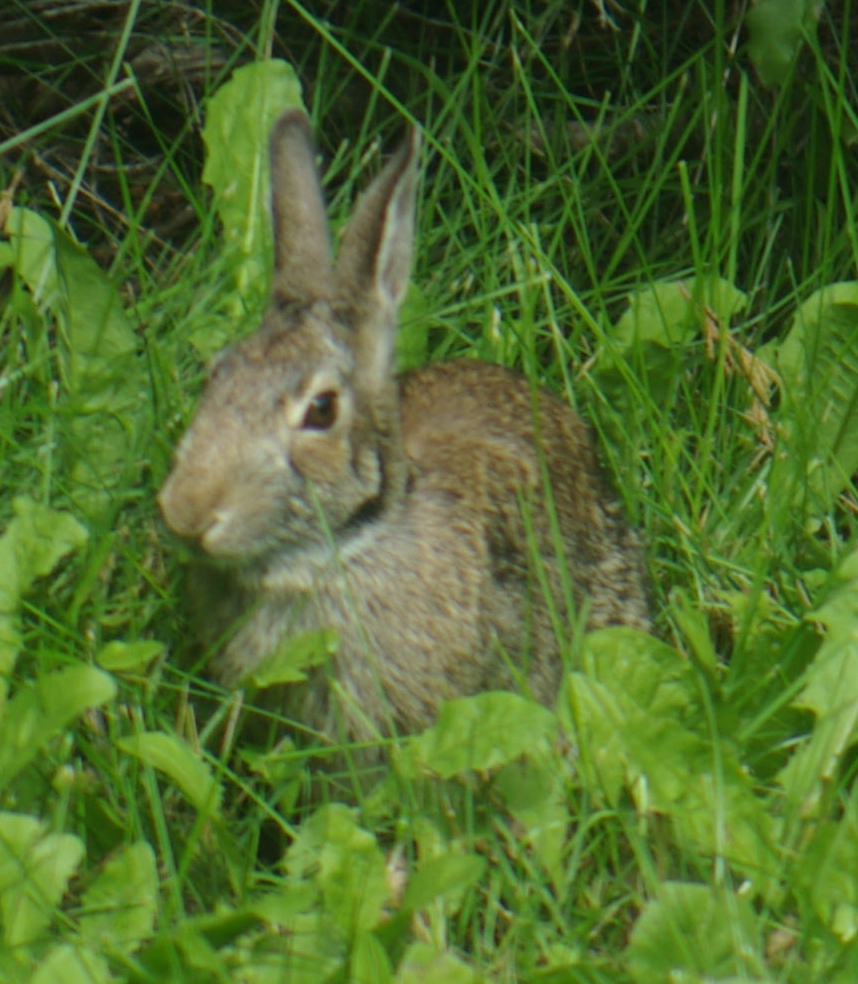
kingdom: Animalia
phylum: Chordata
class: Mammalia
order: Lagomorpha
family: Leporidae
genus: Sylvilagus
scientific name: Sylvilagus floridanus
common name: Eastern cottontail
